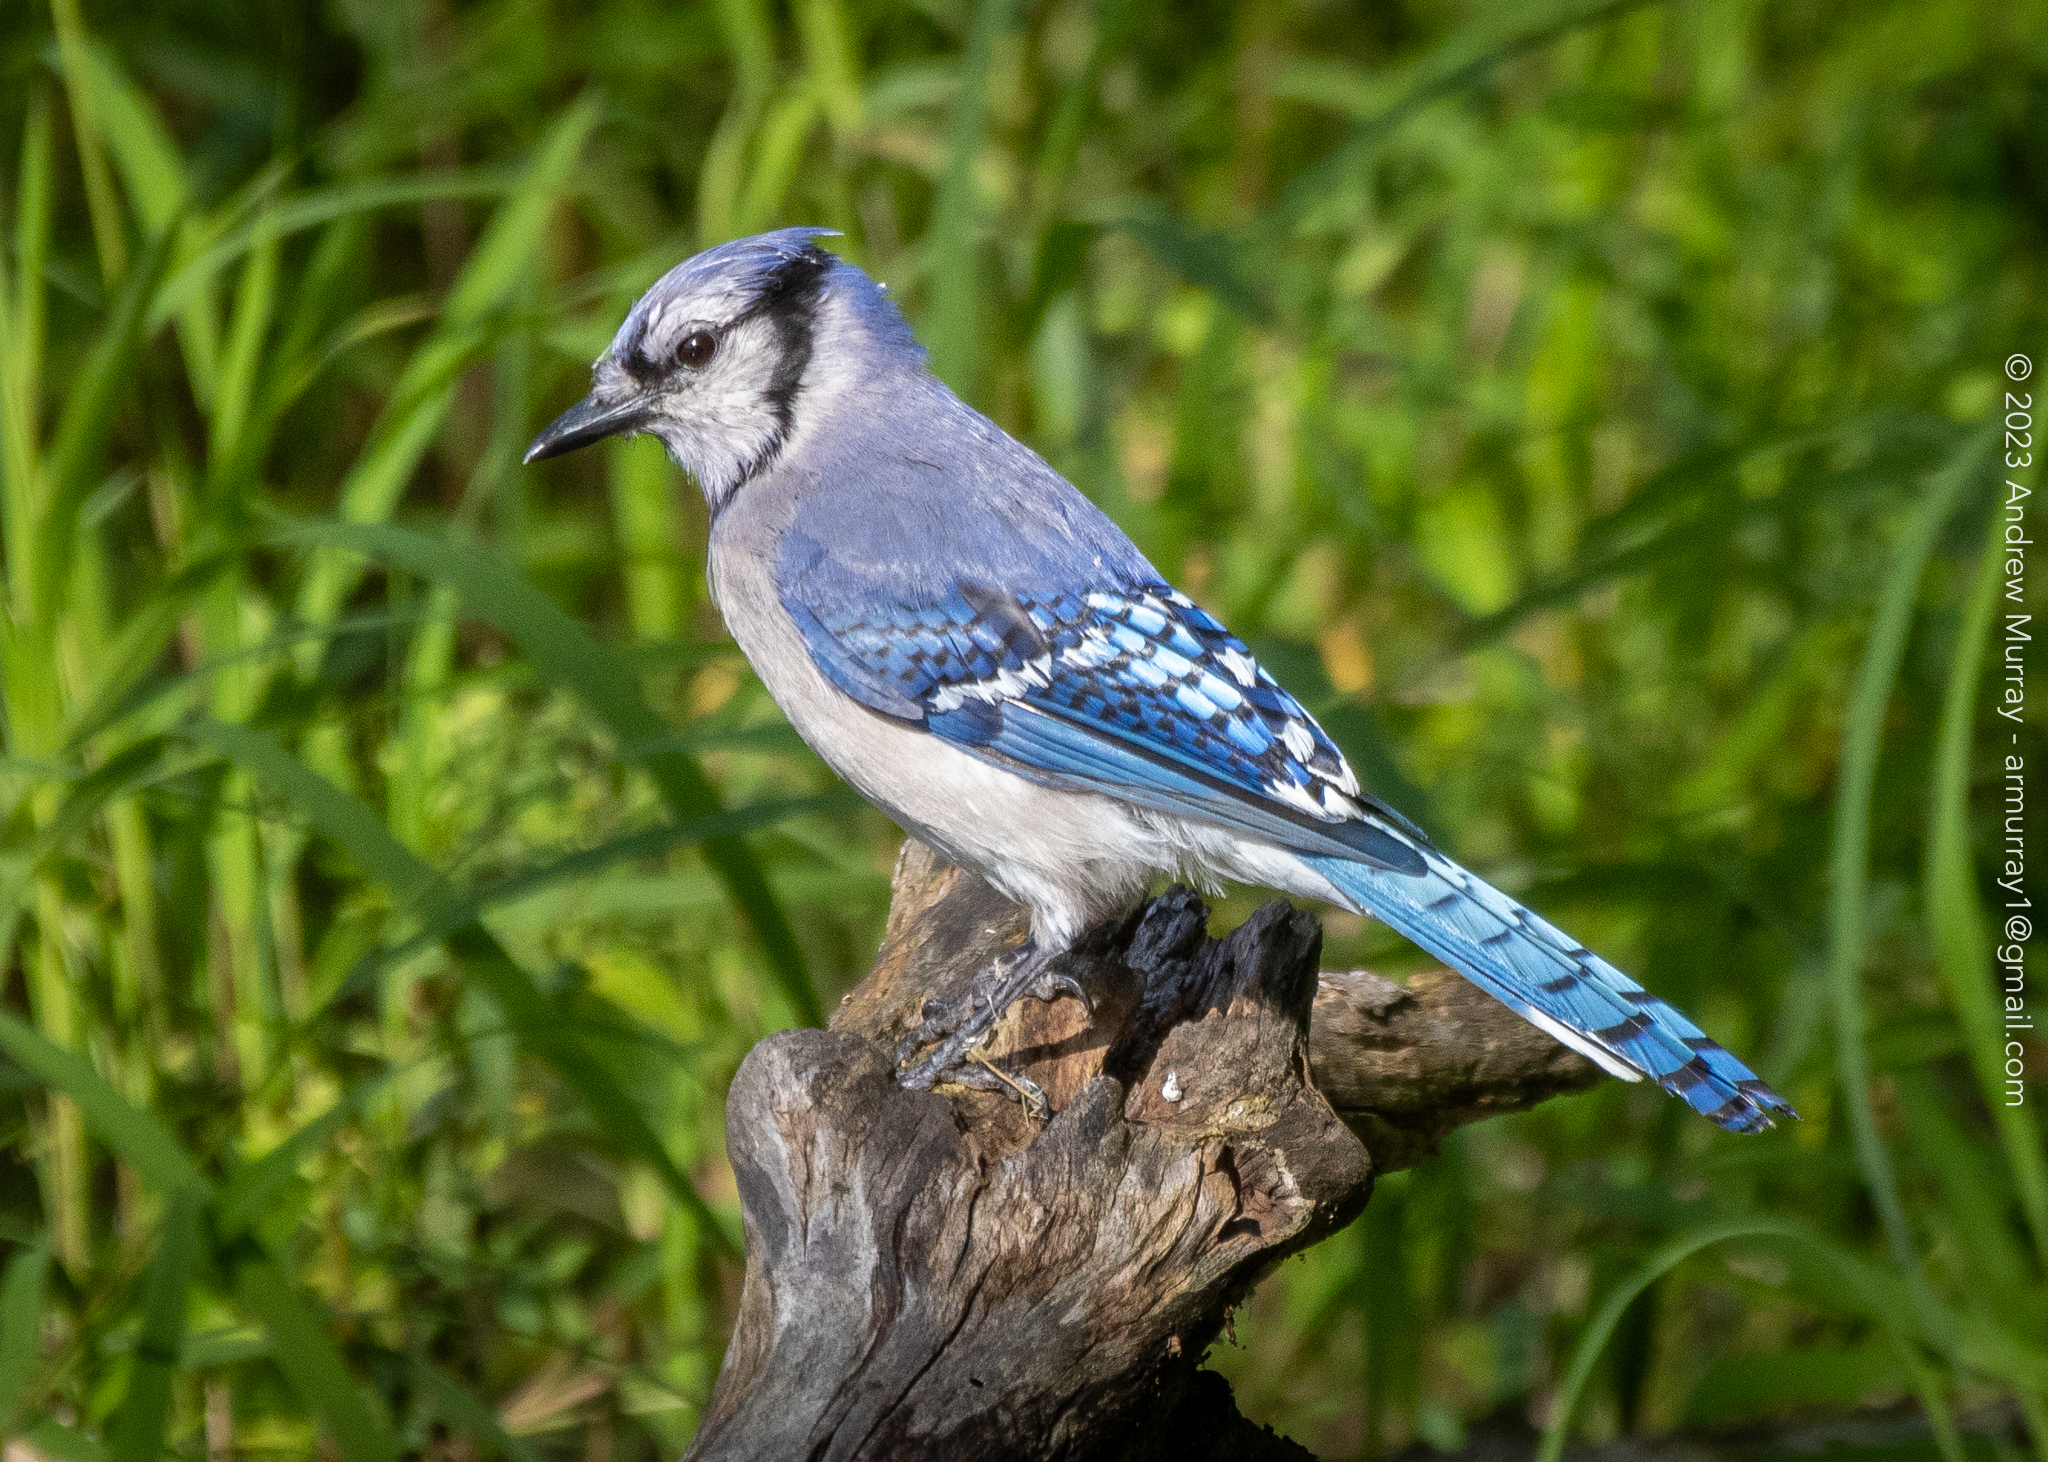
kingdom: Animalia
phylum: Chordata
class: Aves
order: Passeriformes
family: Corvidae
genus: Cyanocitta
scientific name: Cyanocitta cristata
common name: Blue jay
